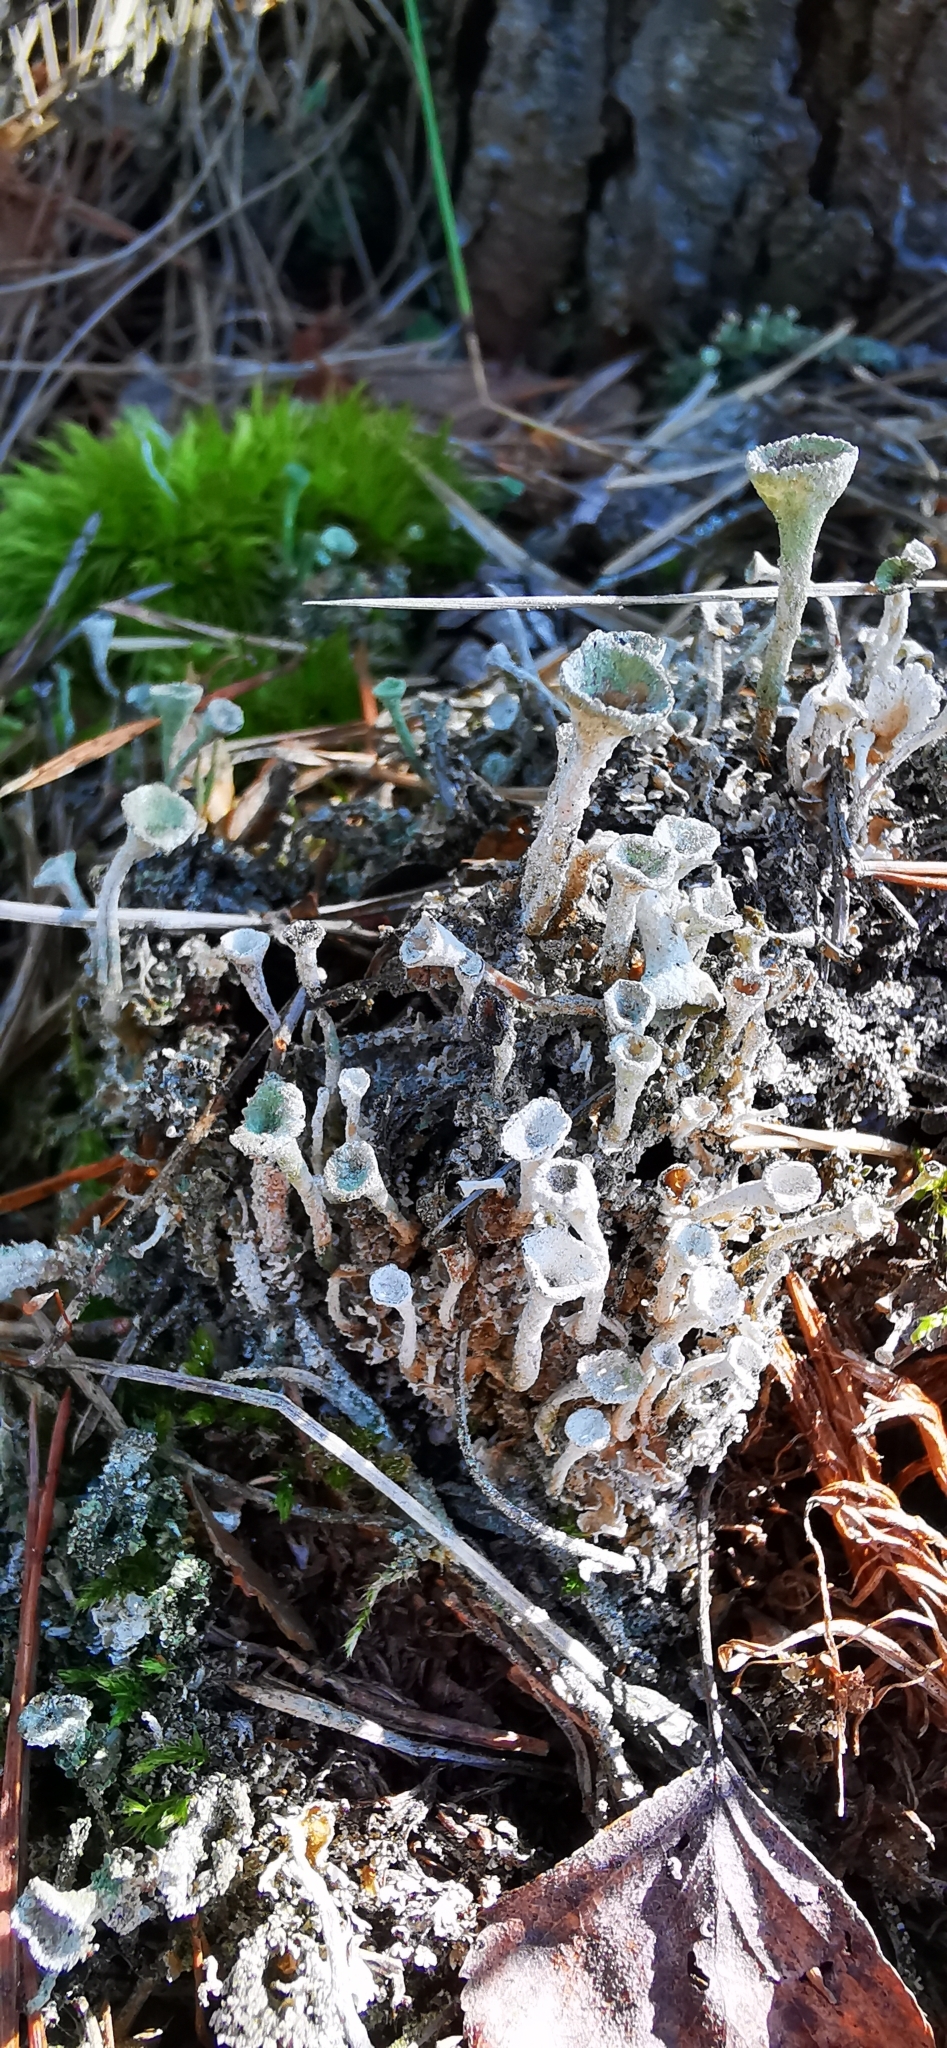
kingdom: Fungi
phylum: Ascomycota
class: Lecanoromycetes
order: Lecanorales
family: Cladoniaceae
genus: Cladonia
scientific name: Cladonia fimbriata
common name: Powdered trumpet lichen
